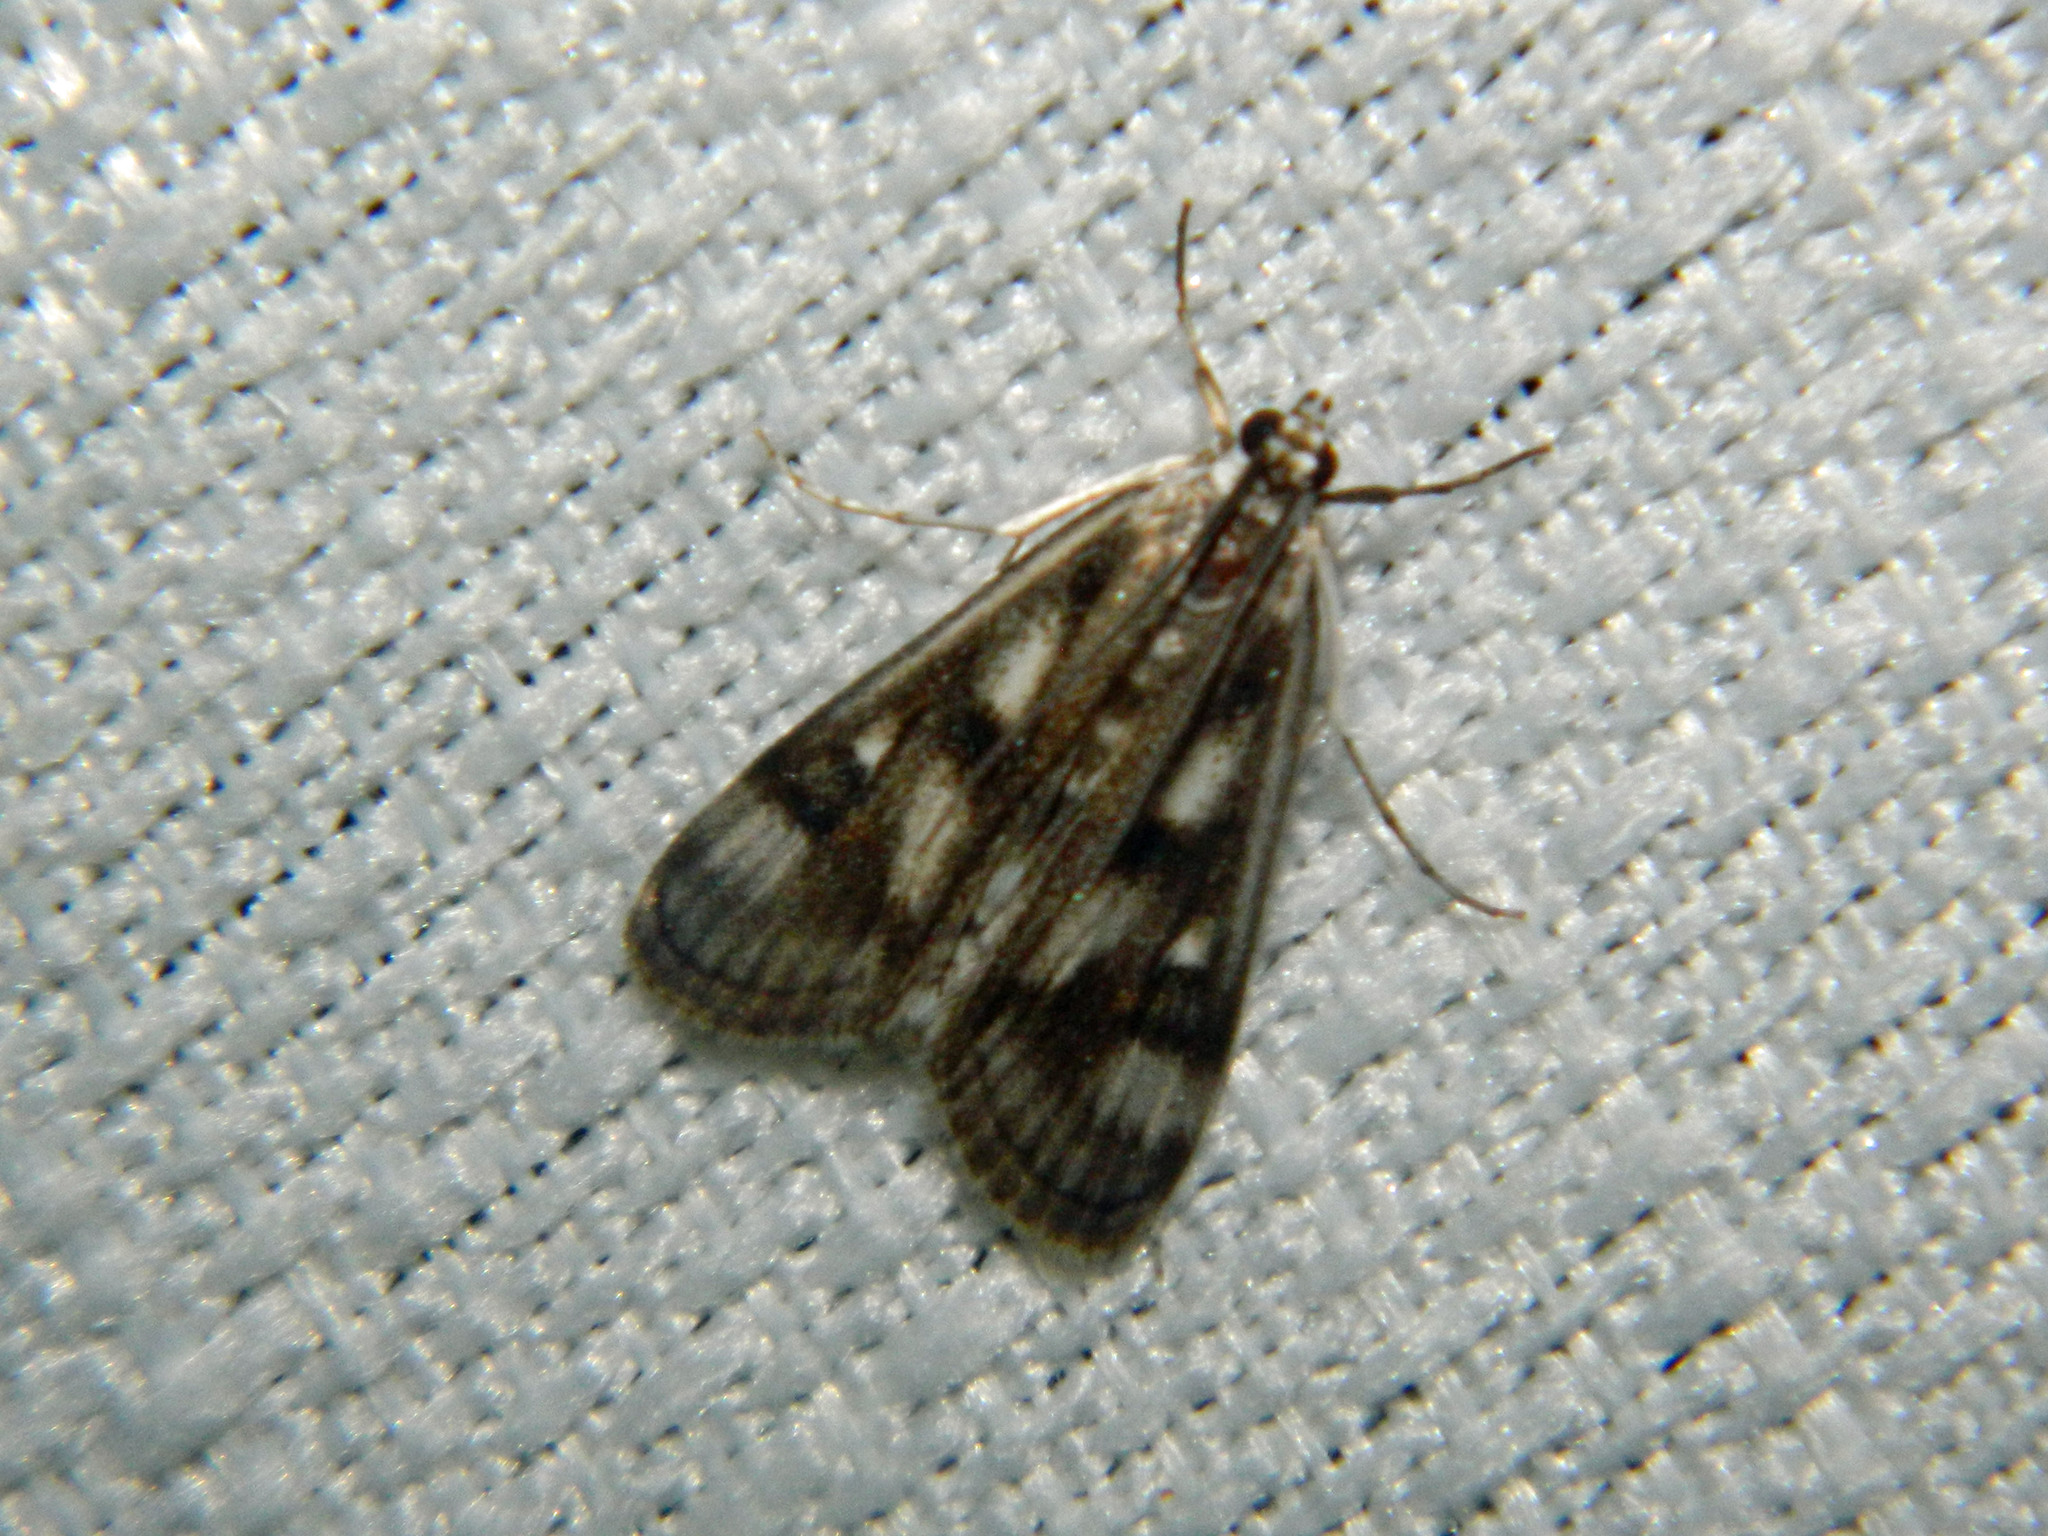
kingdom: Animalia
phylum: Arthropoda
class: Insecta
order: Lepidoptera
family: Crambidae
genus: Parapoynx
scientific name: Parapoynx maculalis
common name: Polymorphic pondweed moth
